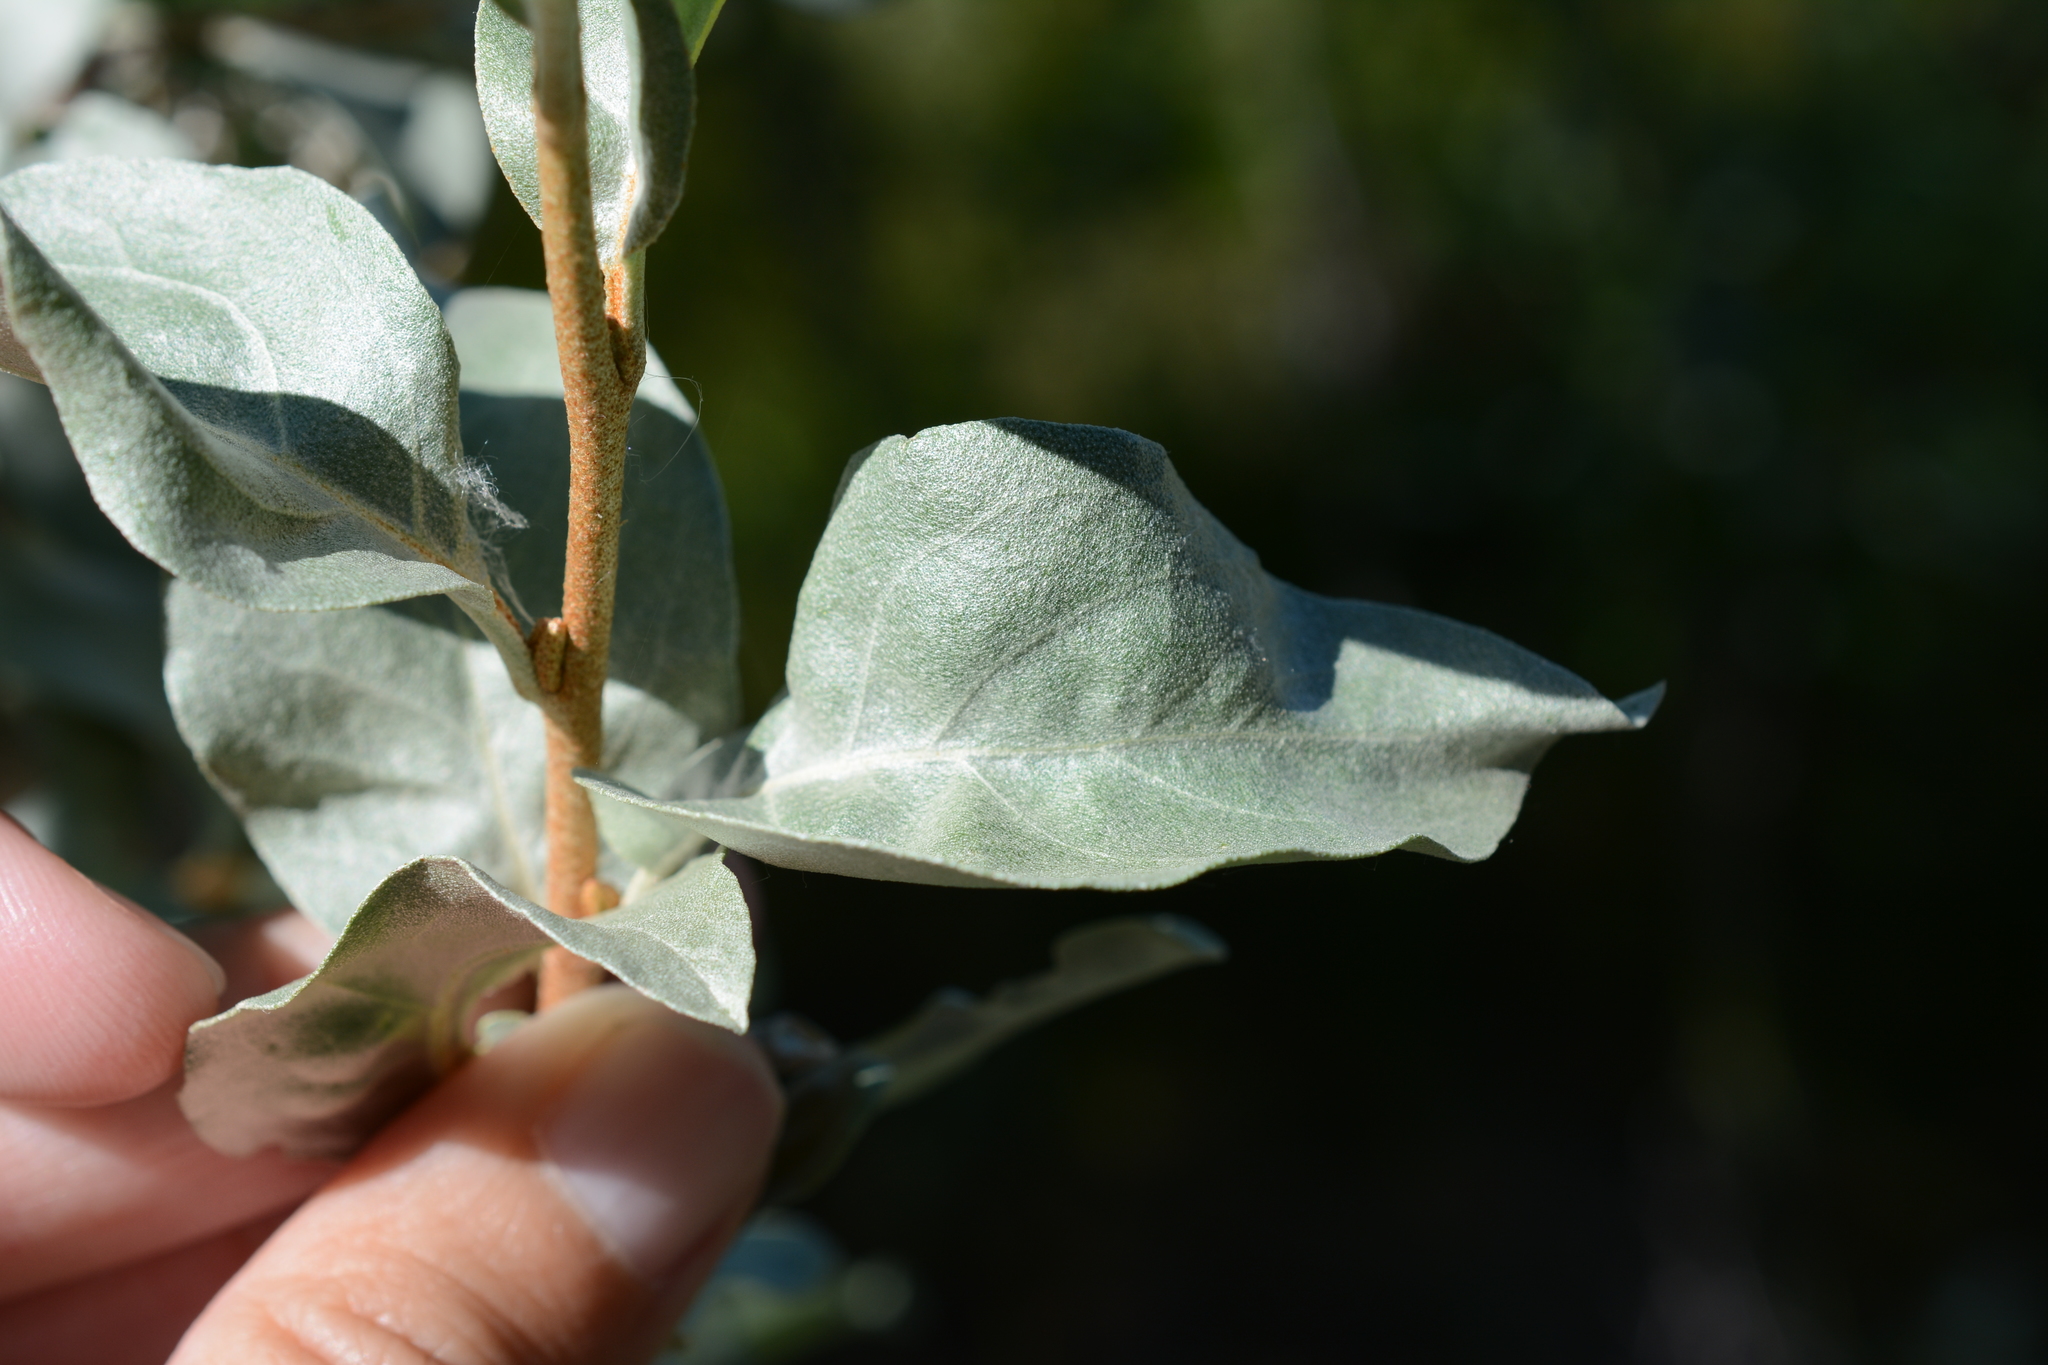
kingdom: Plantae
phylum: Tracheophyta
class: Magnoliopsida
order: Rosales
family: Elaeagnaceae
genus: Elaeagnus
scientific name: Elaeagnus commutata
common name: Silverberry
